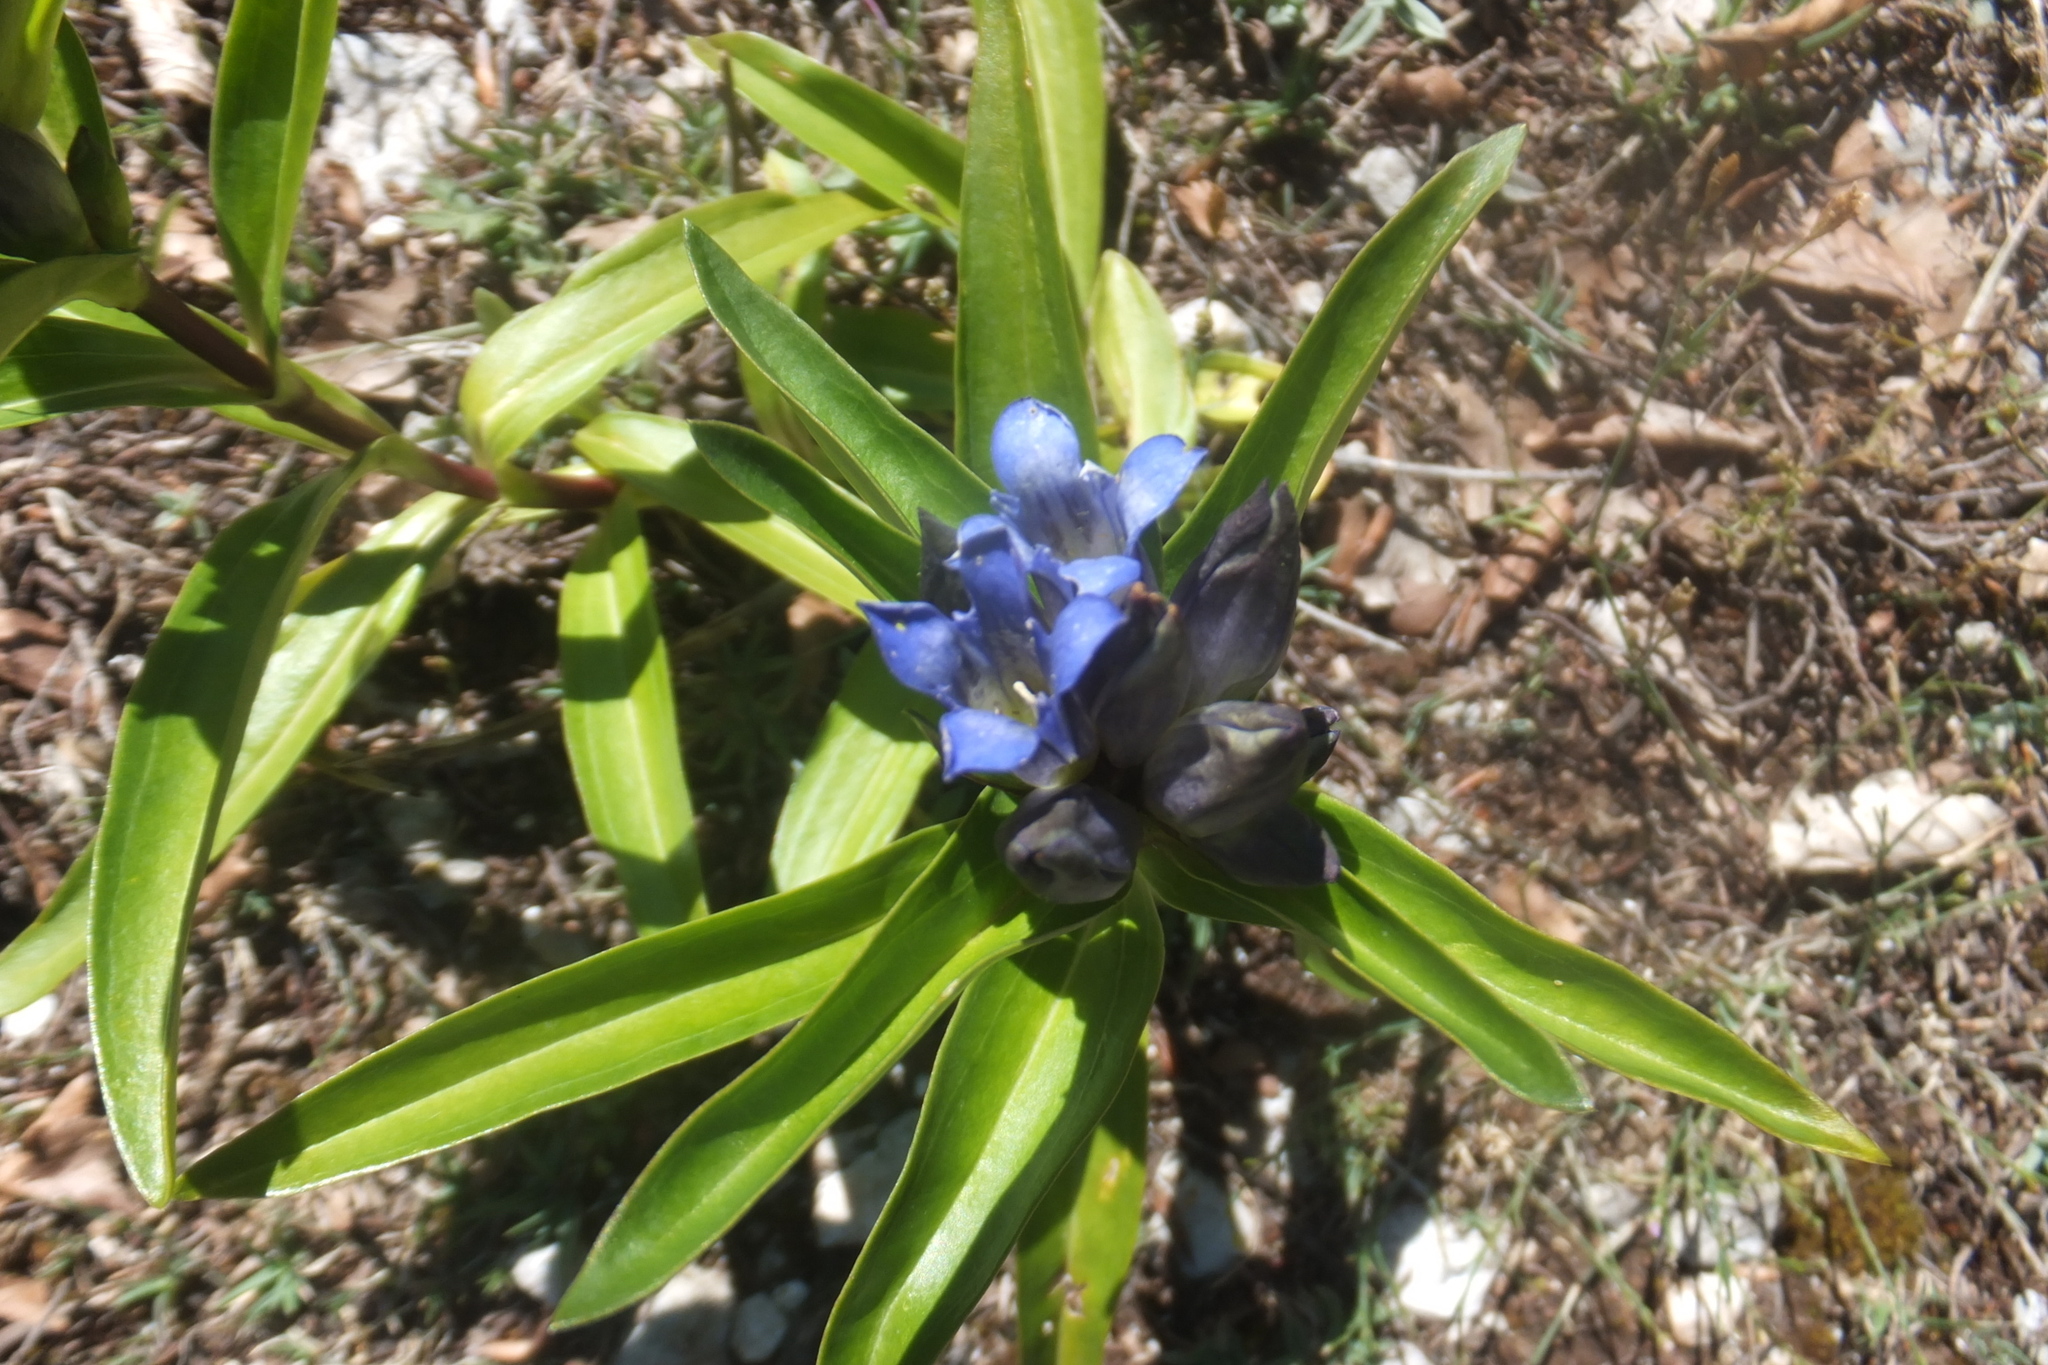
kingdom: Plantae
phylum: Tracheophyta
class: Magnoliopsida
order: Gentianales
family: Gentianaceae
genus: Gentiana
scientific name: Gentiana cruciata
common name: Cross gentian
